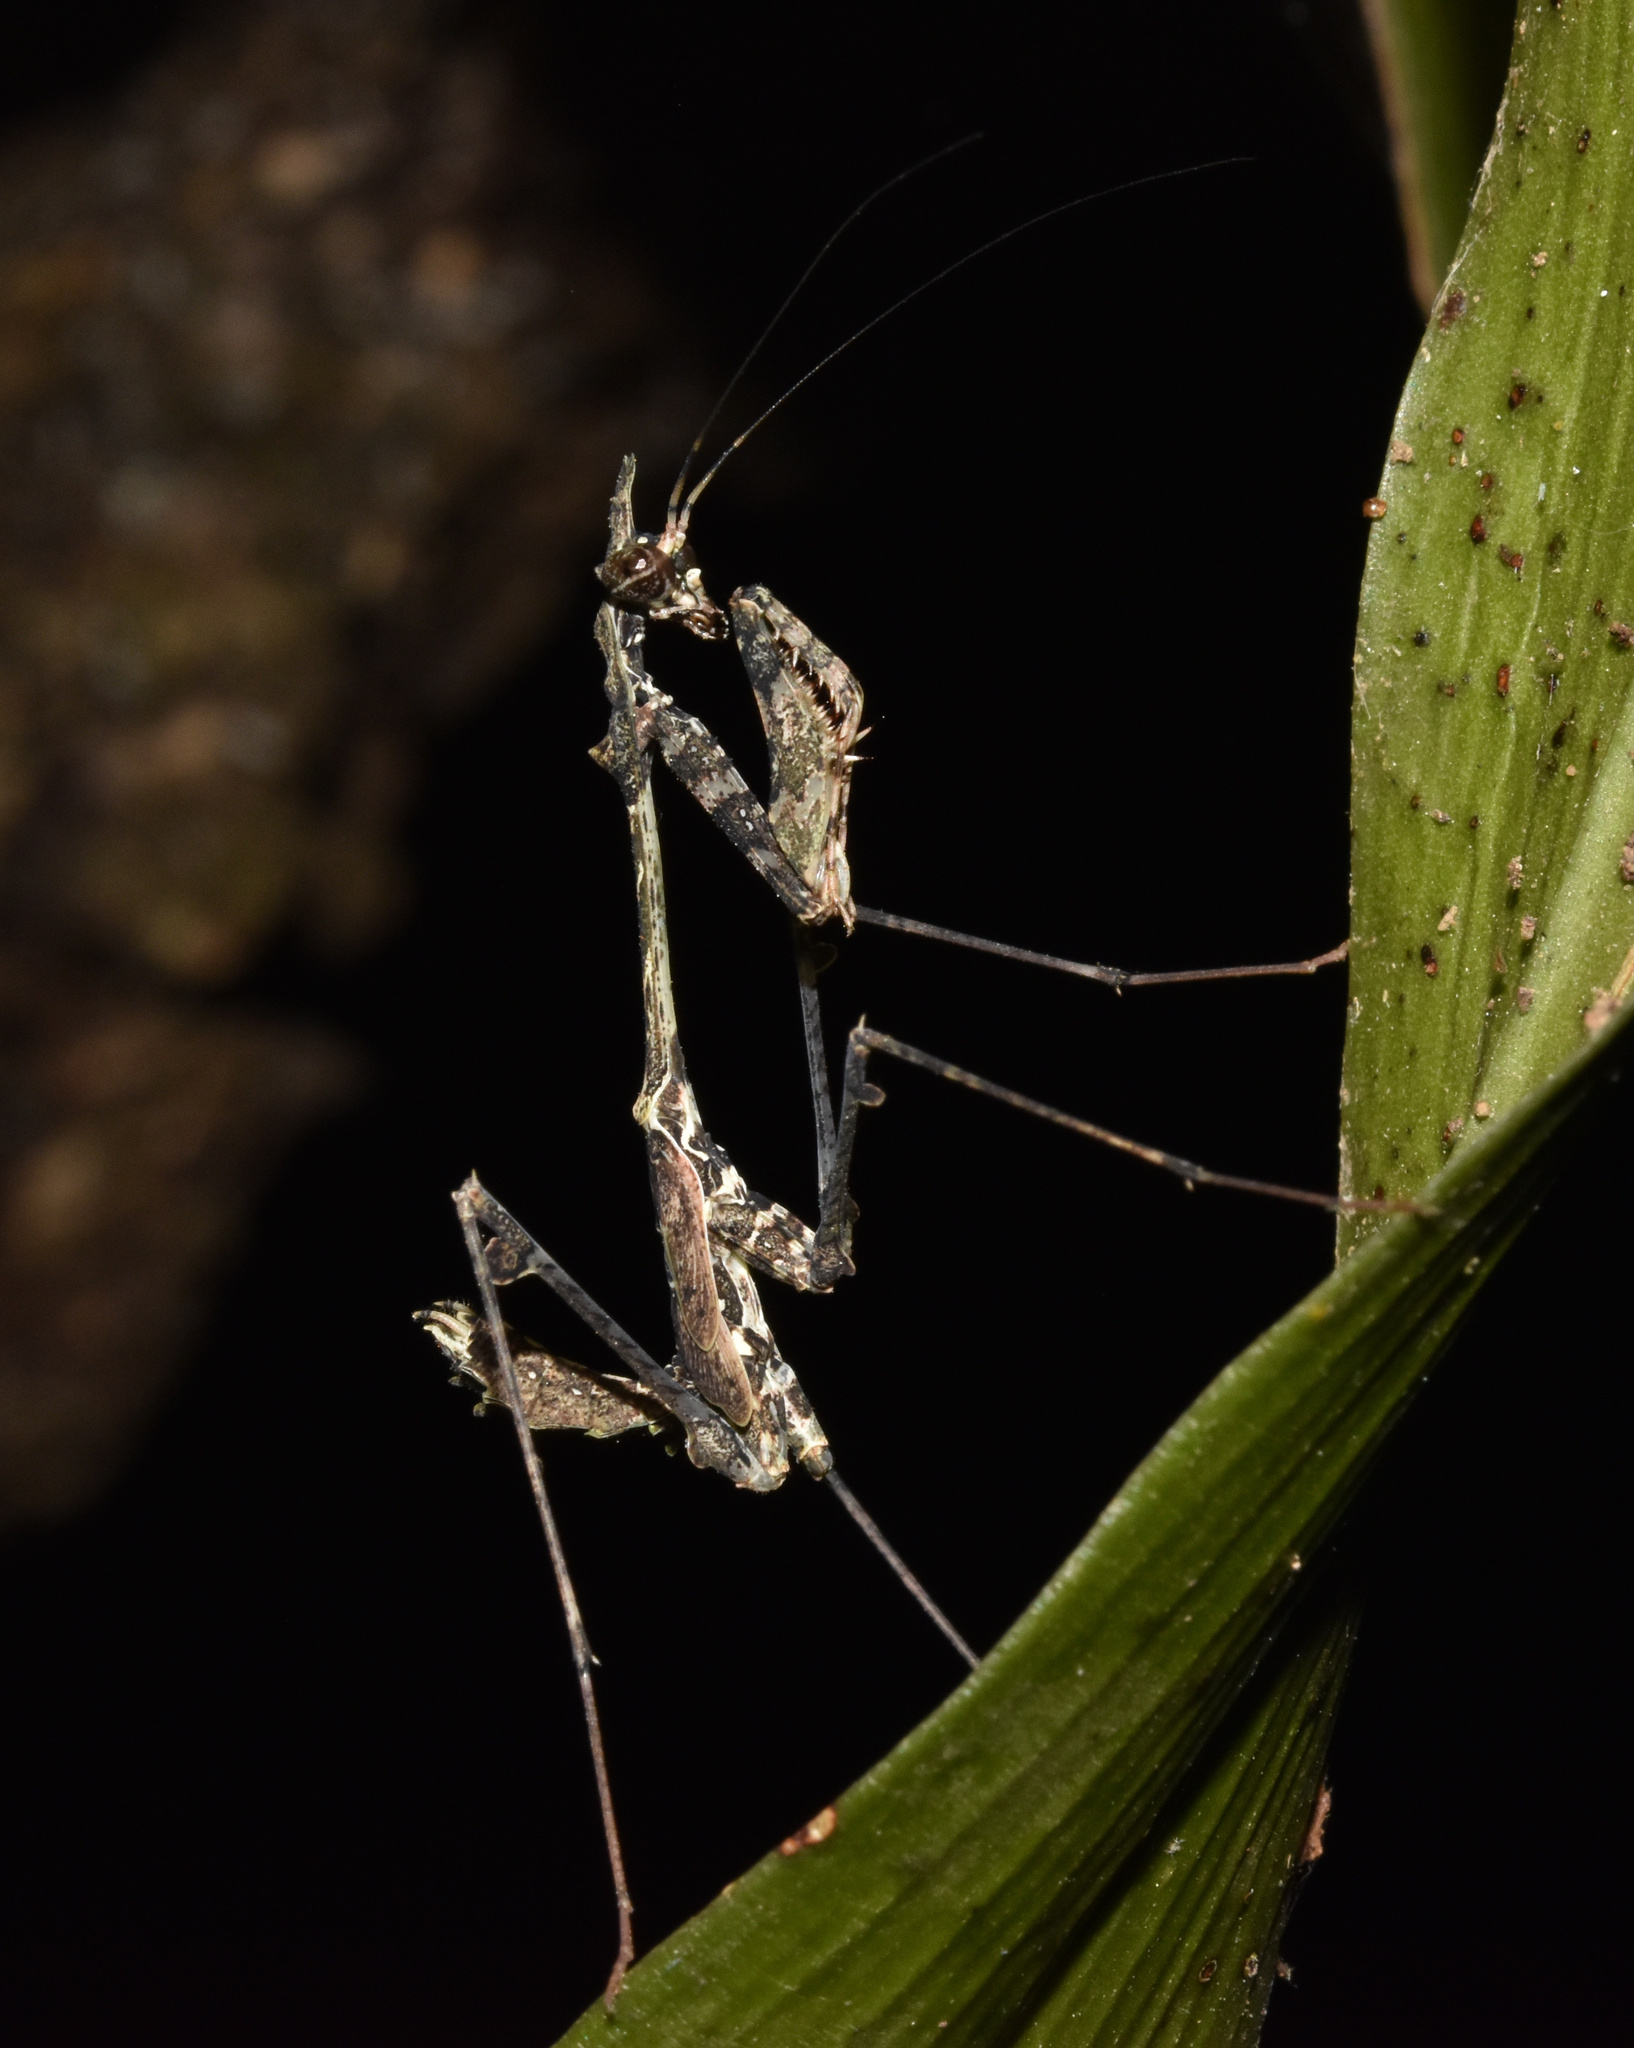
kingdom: Animalia
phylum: Arthropoda
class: Insecta
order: Mantodea
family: Hymenopodidae
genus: Sibylla
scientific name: Sibylla pretiosa
